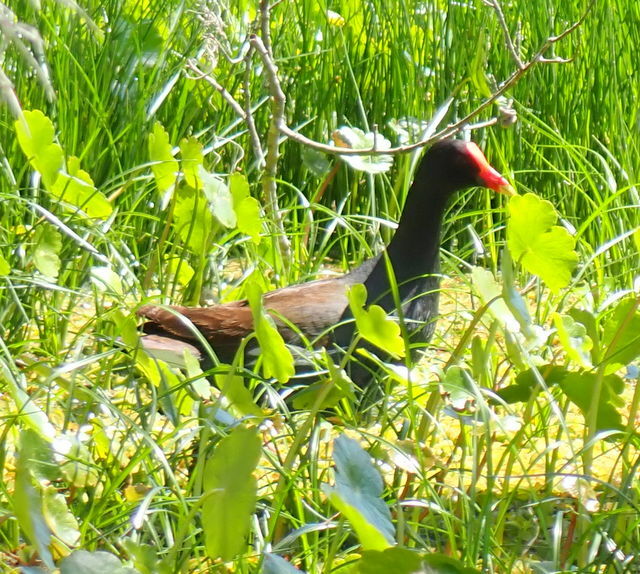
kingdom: Animalia
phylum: Chordata
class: Aves
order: Gruiformes
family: Rallidae
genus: Gallinula
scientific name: Gallinula chloropus
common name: Common moorhen
